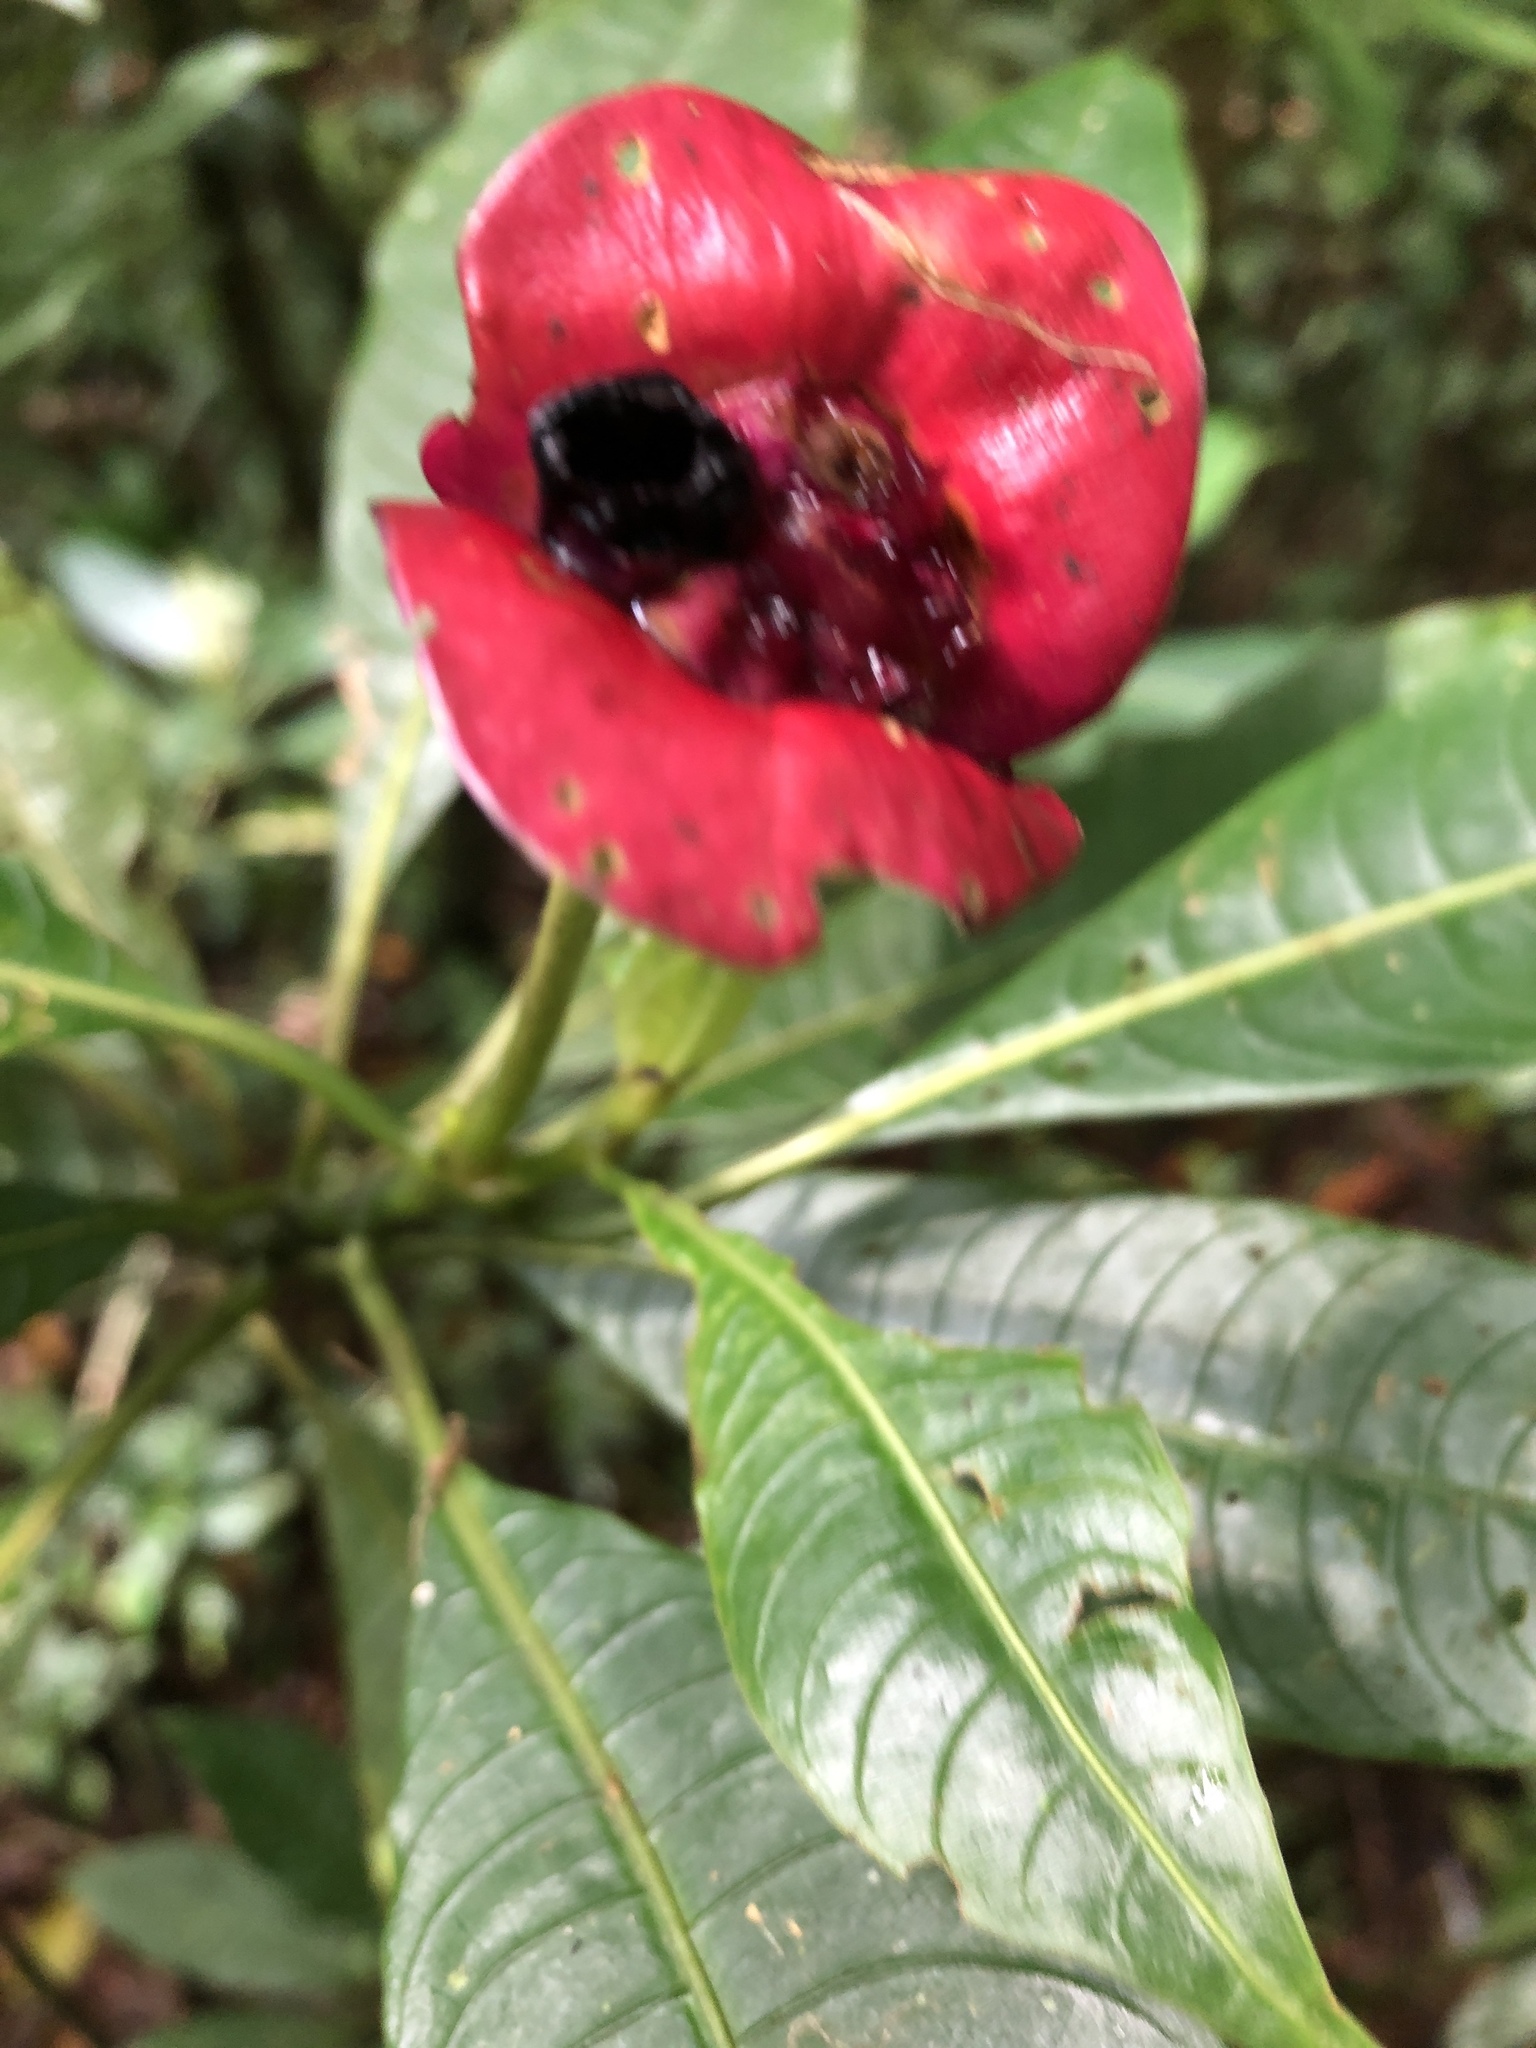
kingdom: Plantae
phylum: Tracheophyta
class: Magnoliopsida
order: Gentianales
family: Rubiaceae
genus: Palicourea
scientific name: Palicourea elata
